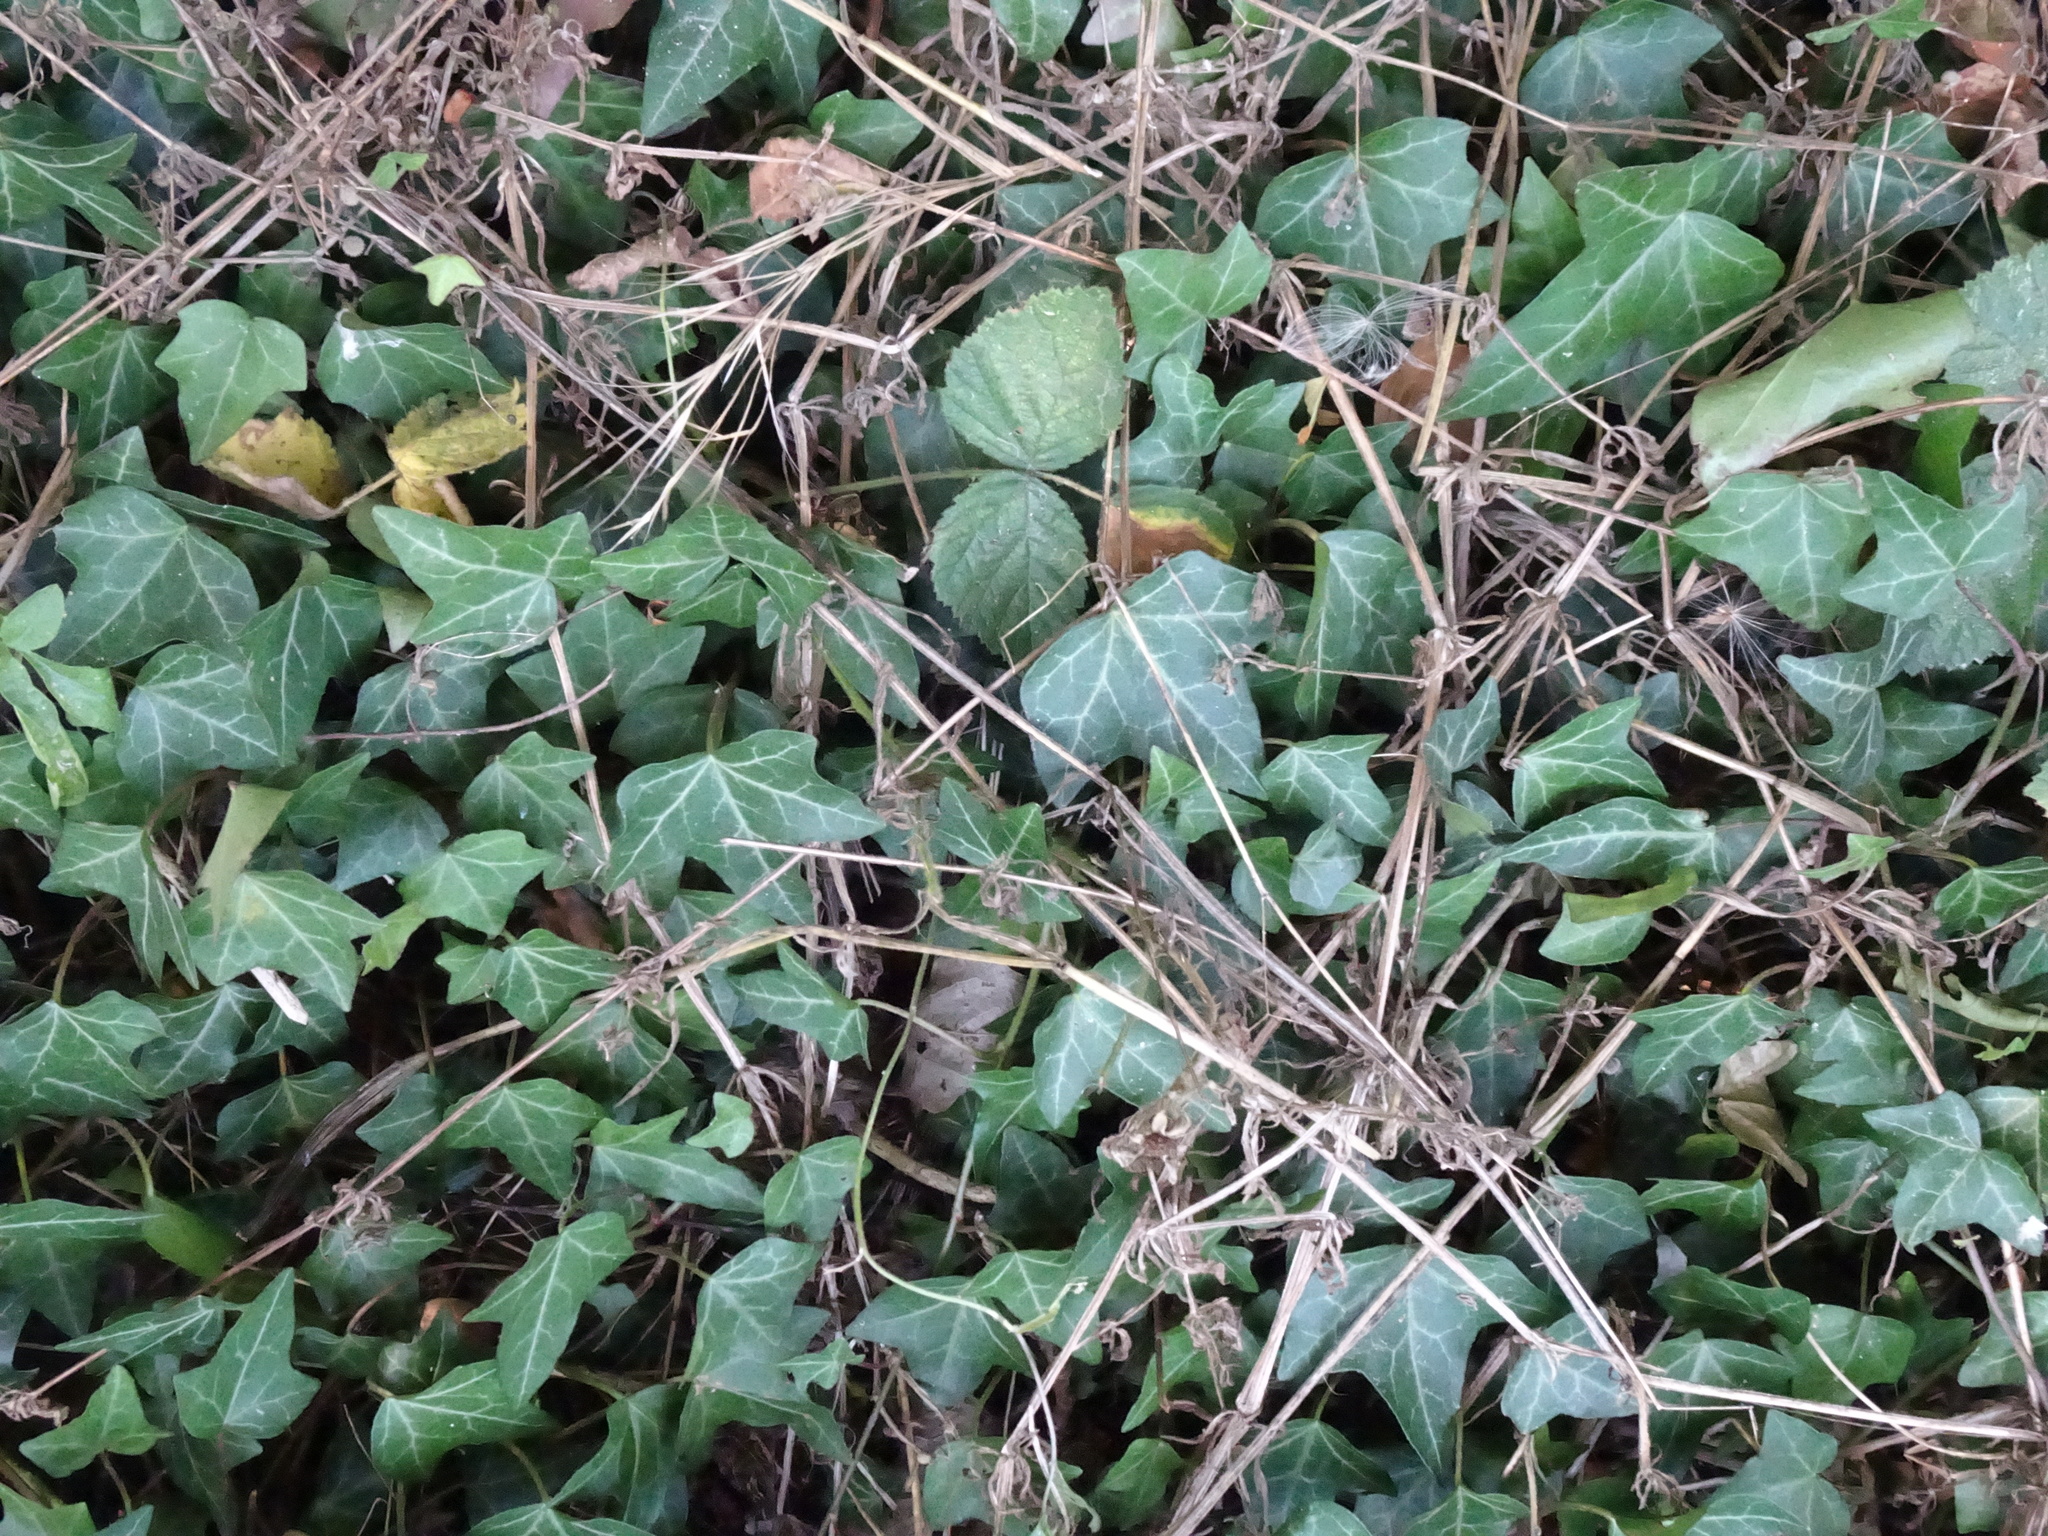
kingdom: Plantae
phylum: Tracheophyta
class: Magnoliopsida
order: Apiales
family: Araliaceae
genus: Hedera
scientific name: Hedera helix
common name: Ivy
